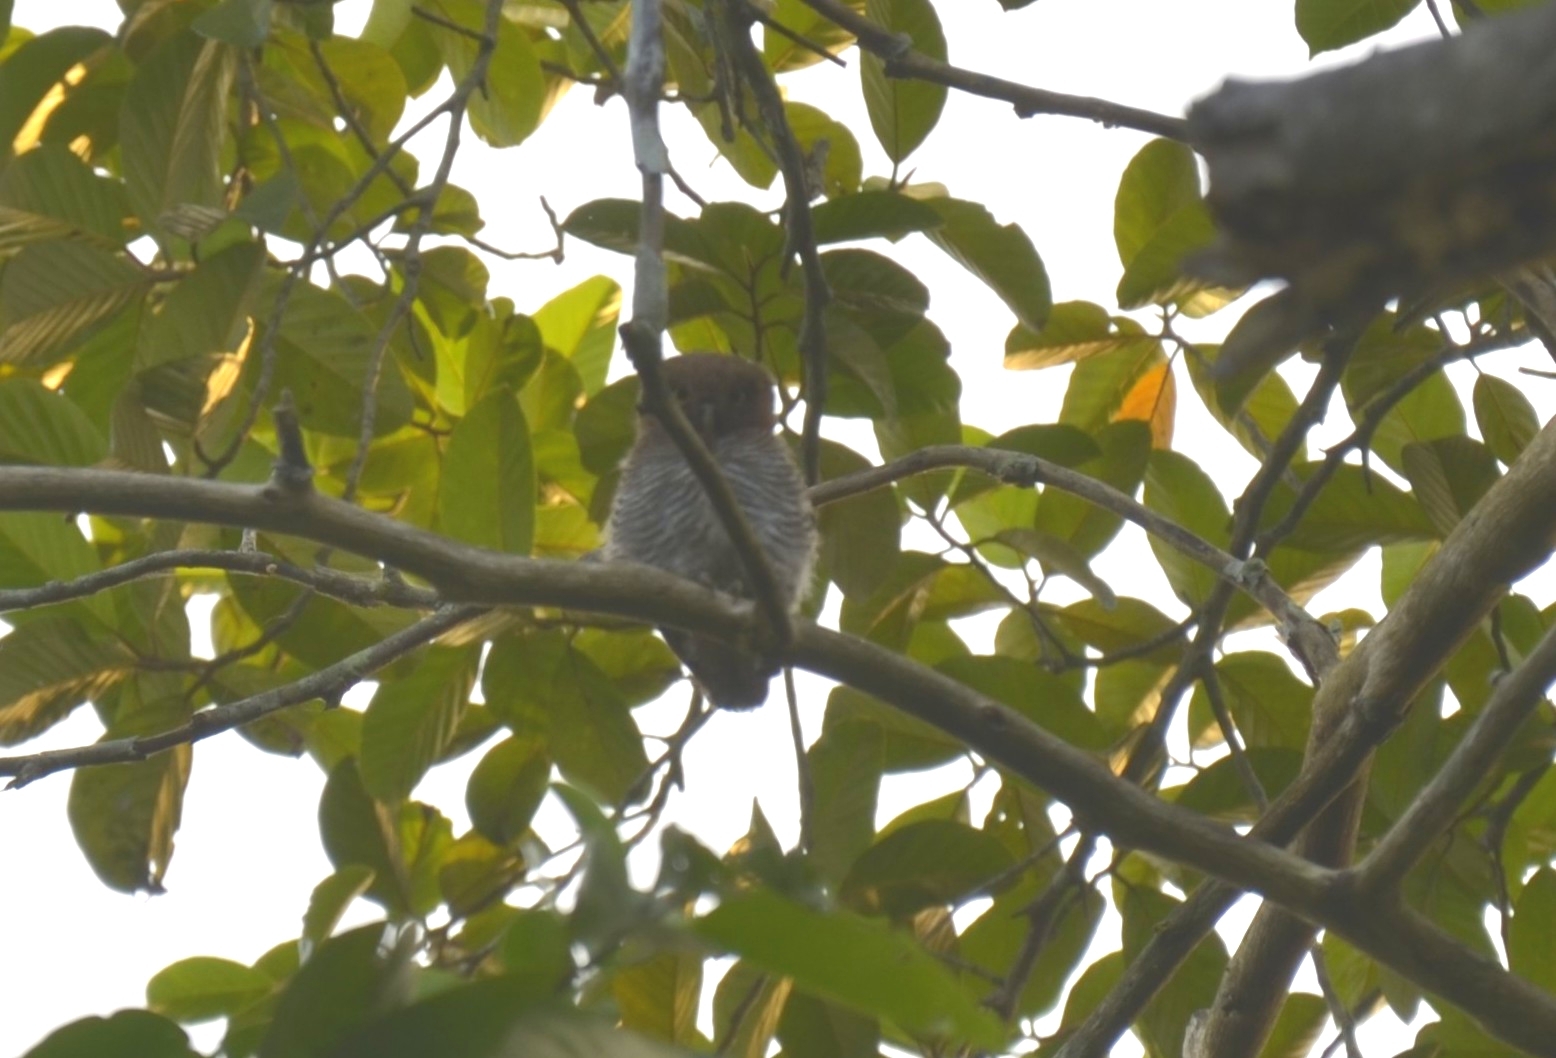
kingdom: Animalia
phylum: Chordata
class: Aves
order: Strigiformes
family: Strigidae
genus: Glaucidium
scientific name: Glaucidium radiatum
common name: Jungle owlet
